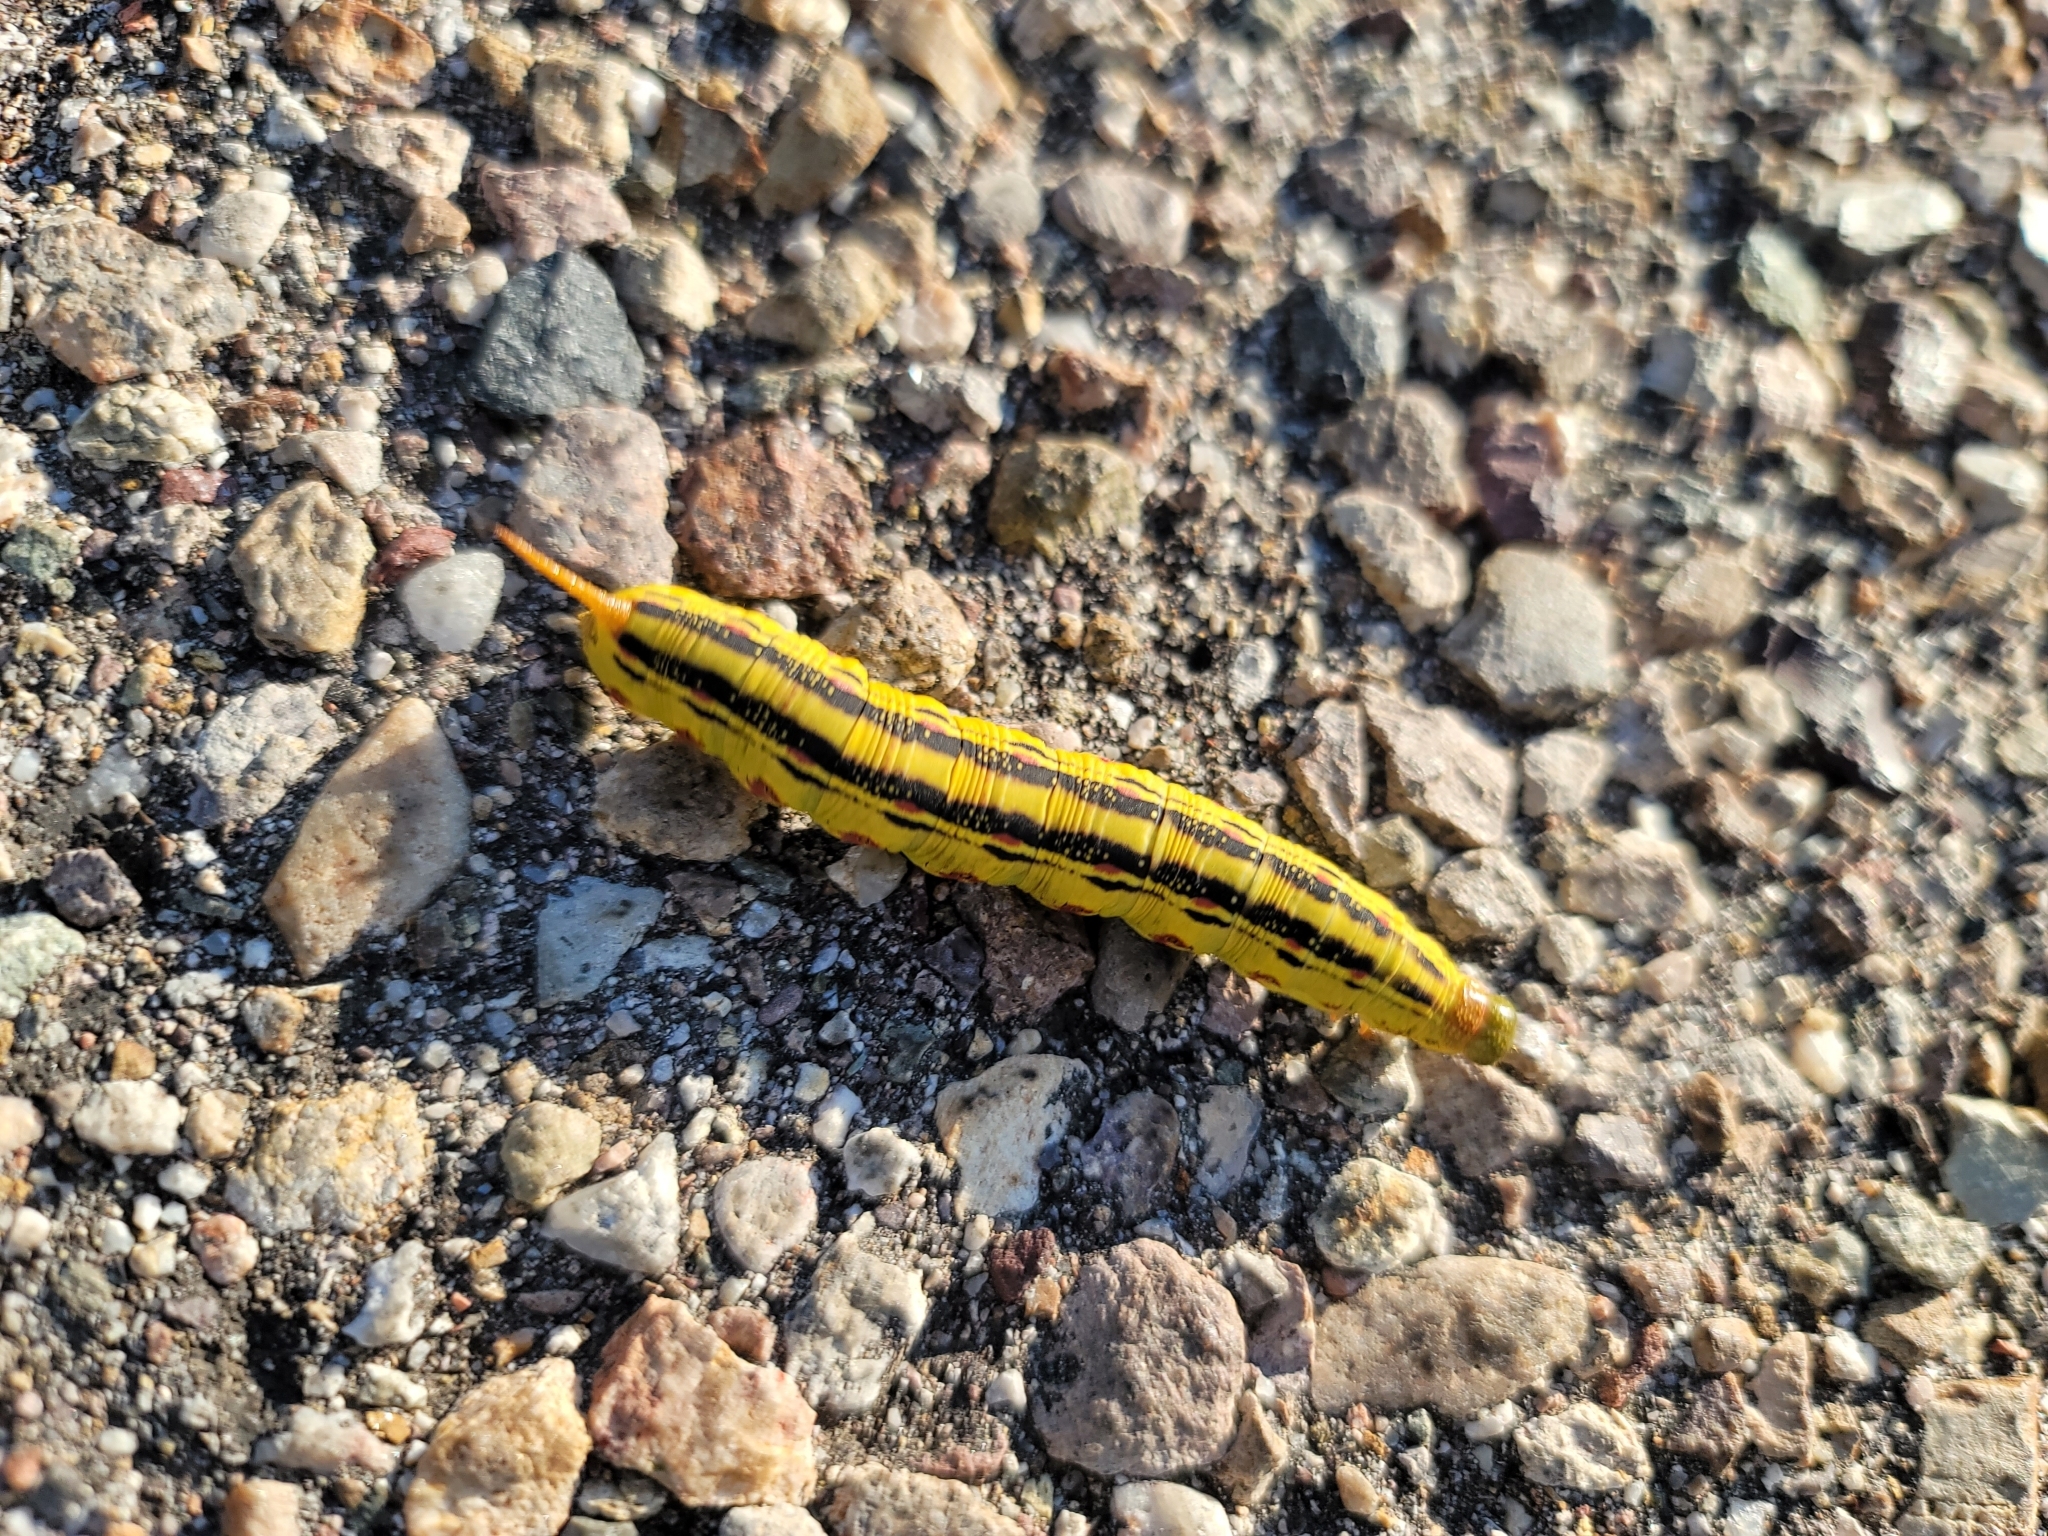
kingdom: Animalia
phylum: Arthropoda
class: Insecta
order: Lepidoptera
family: Sphingidae
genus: Hyles
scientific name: Hyles lineata
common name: White-lined sphinx
